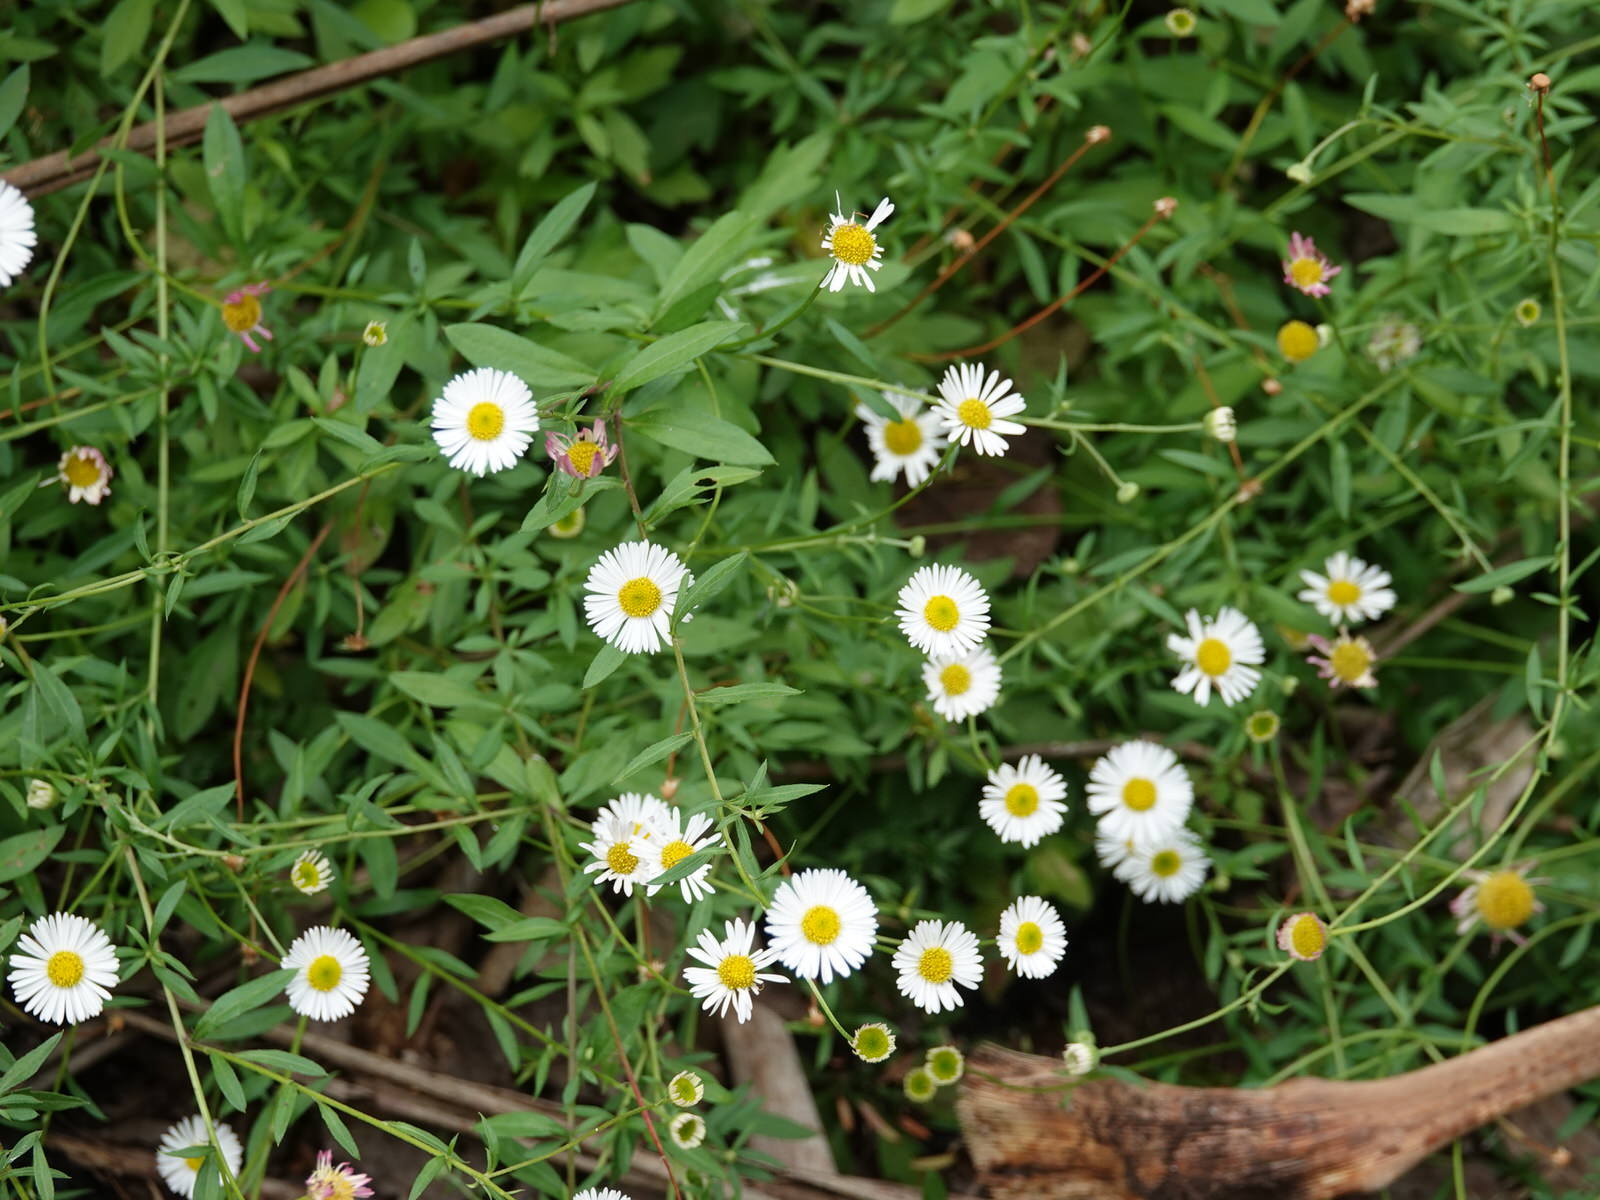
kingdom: Plantae
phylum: Tracheophyta
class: Magnoliopsida
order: Asterales
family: Asteraceae
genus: Erigeron
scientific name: Erigeron karvinskianus
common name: Mexican fleabane
